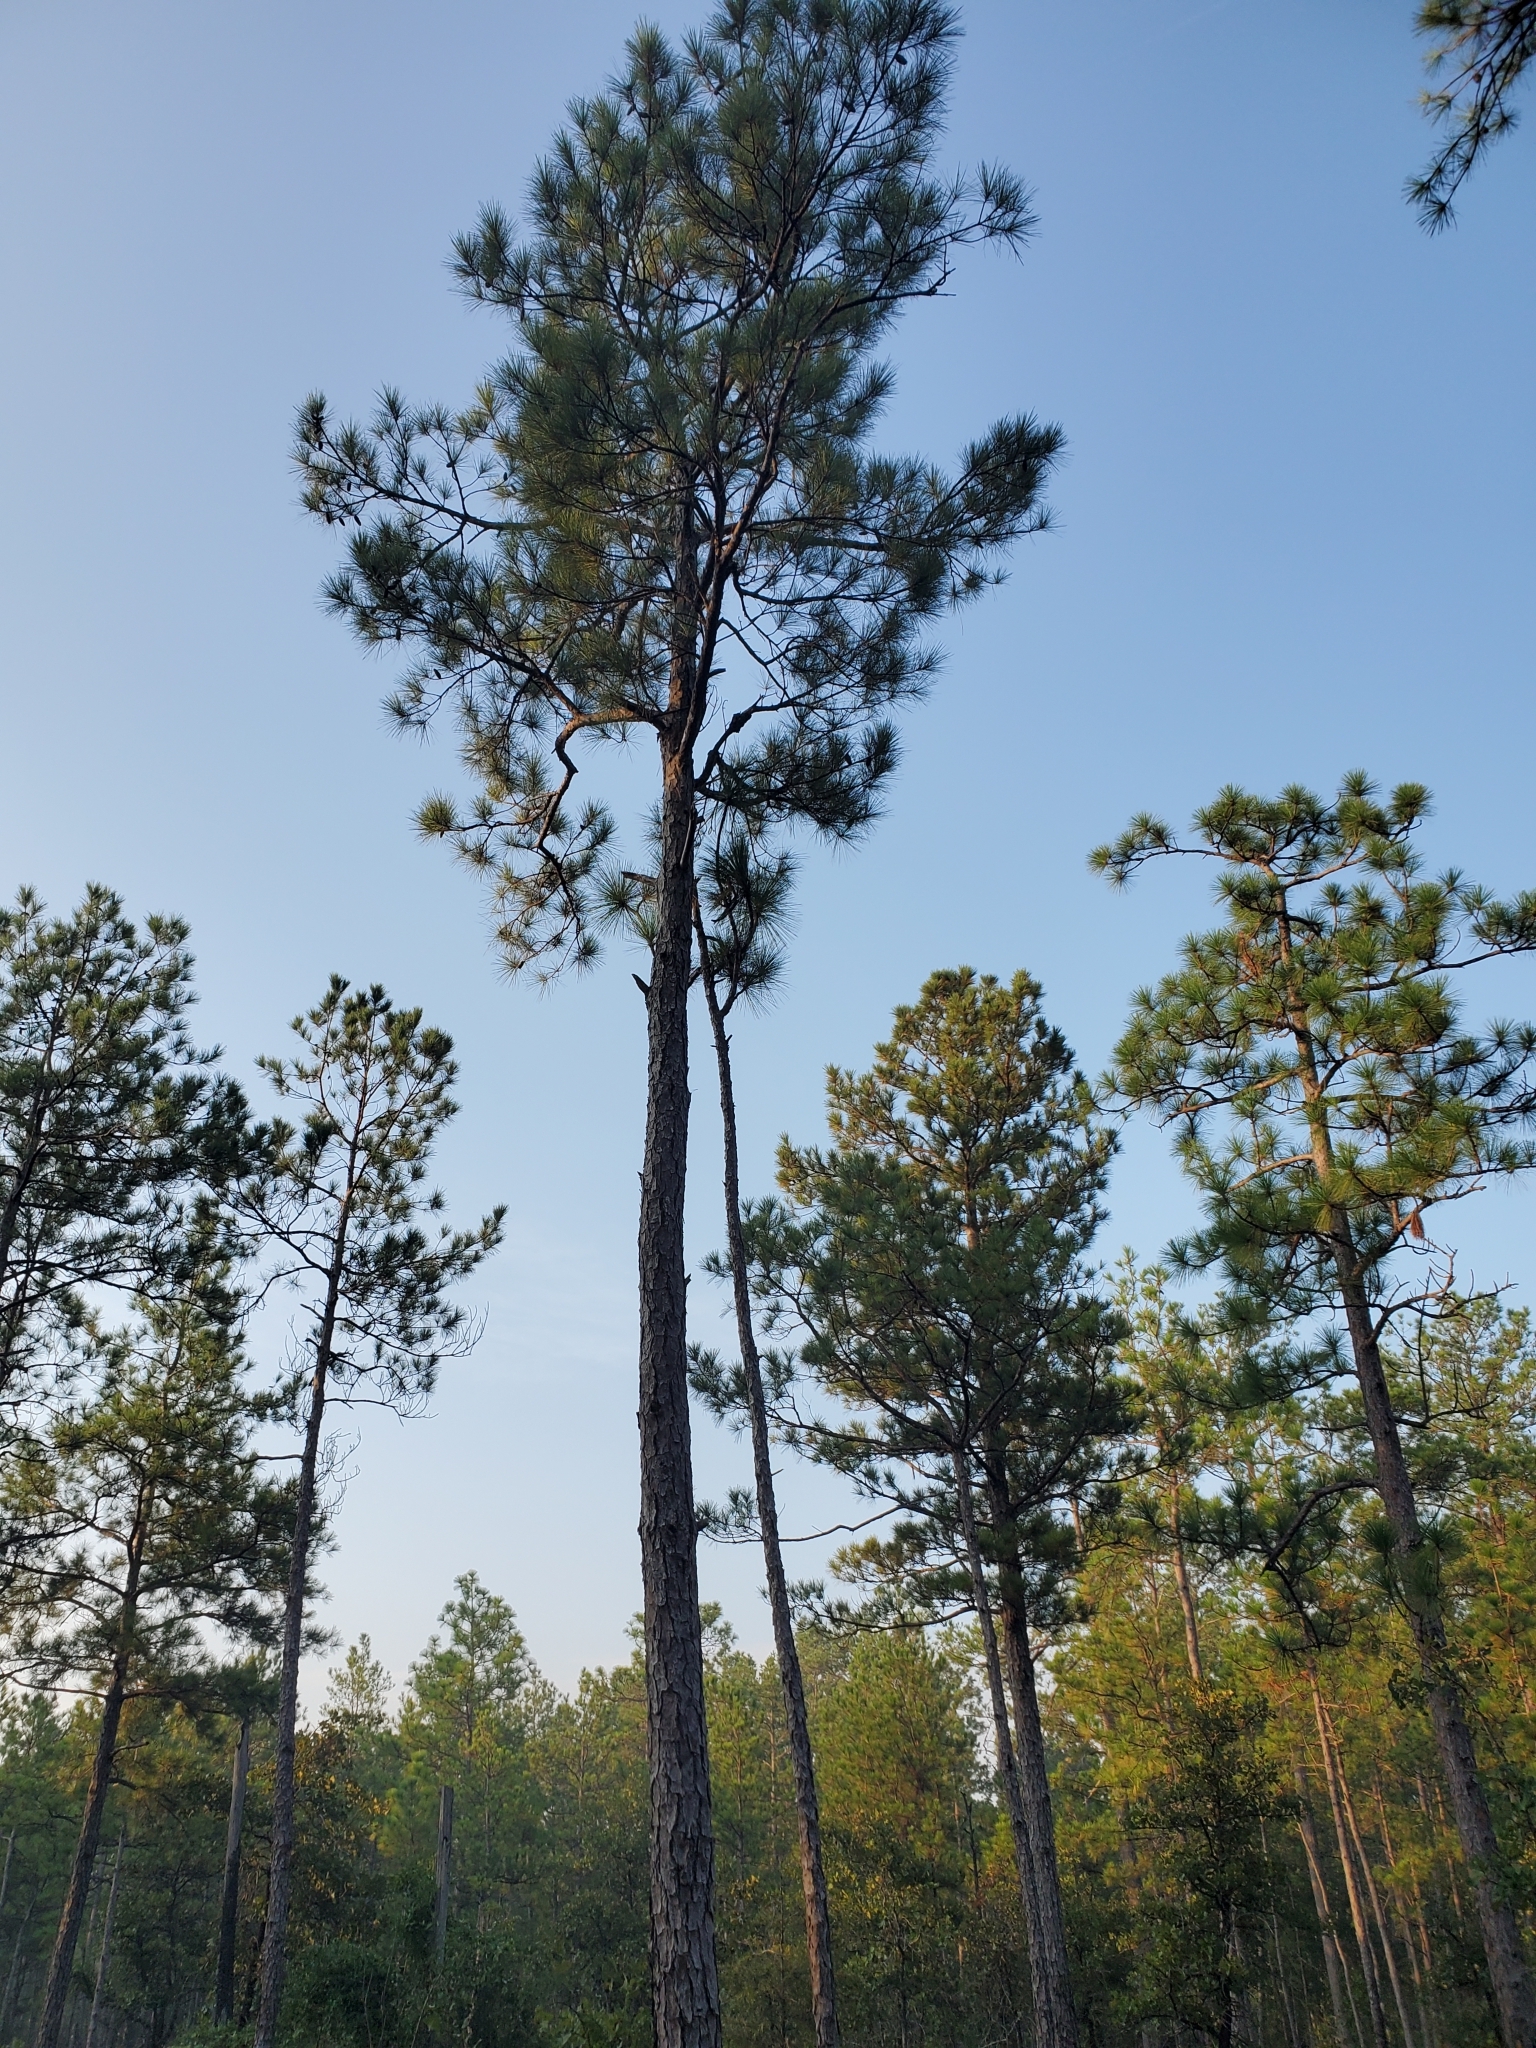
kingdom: Plantae
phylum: Tracheophyta
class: Pinopsida
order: Pinales
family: Pinaceae
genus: Pinus
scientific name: Pinus palustris
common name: Longleaf pine
